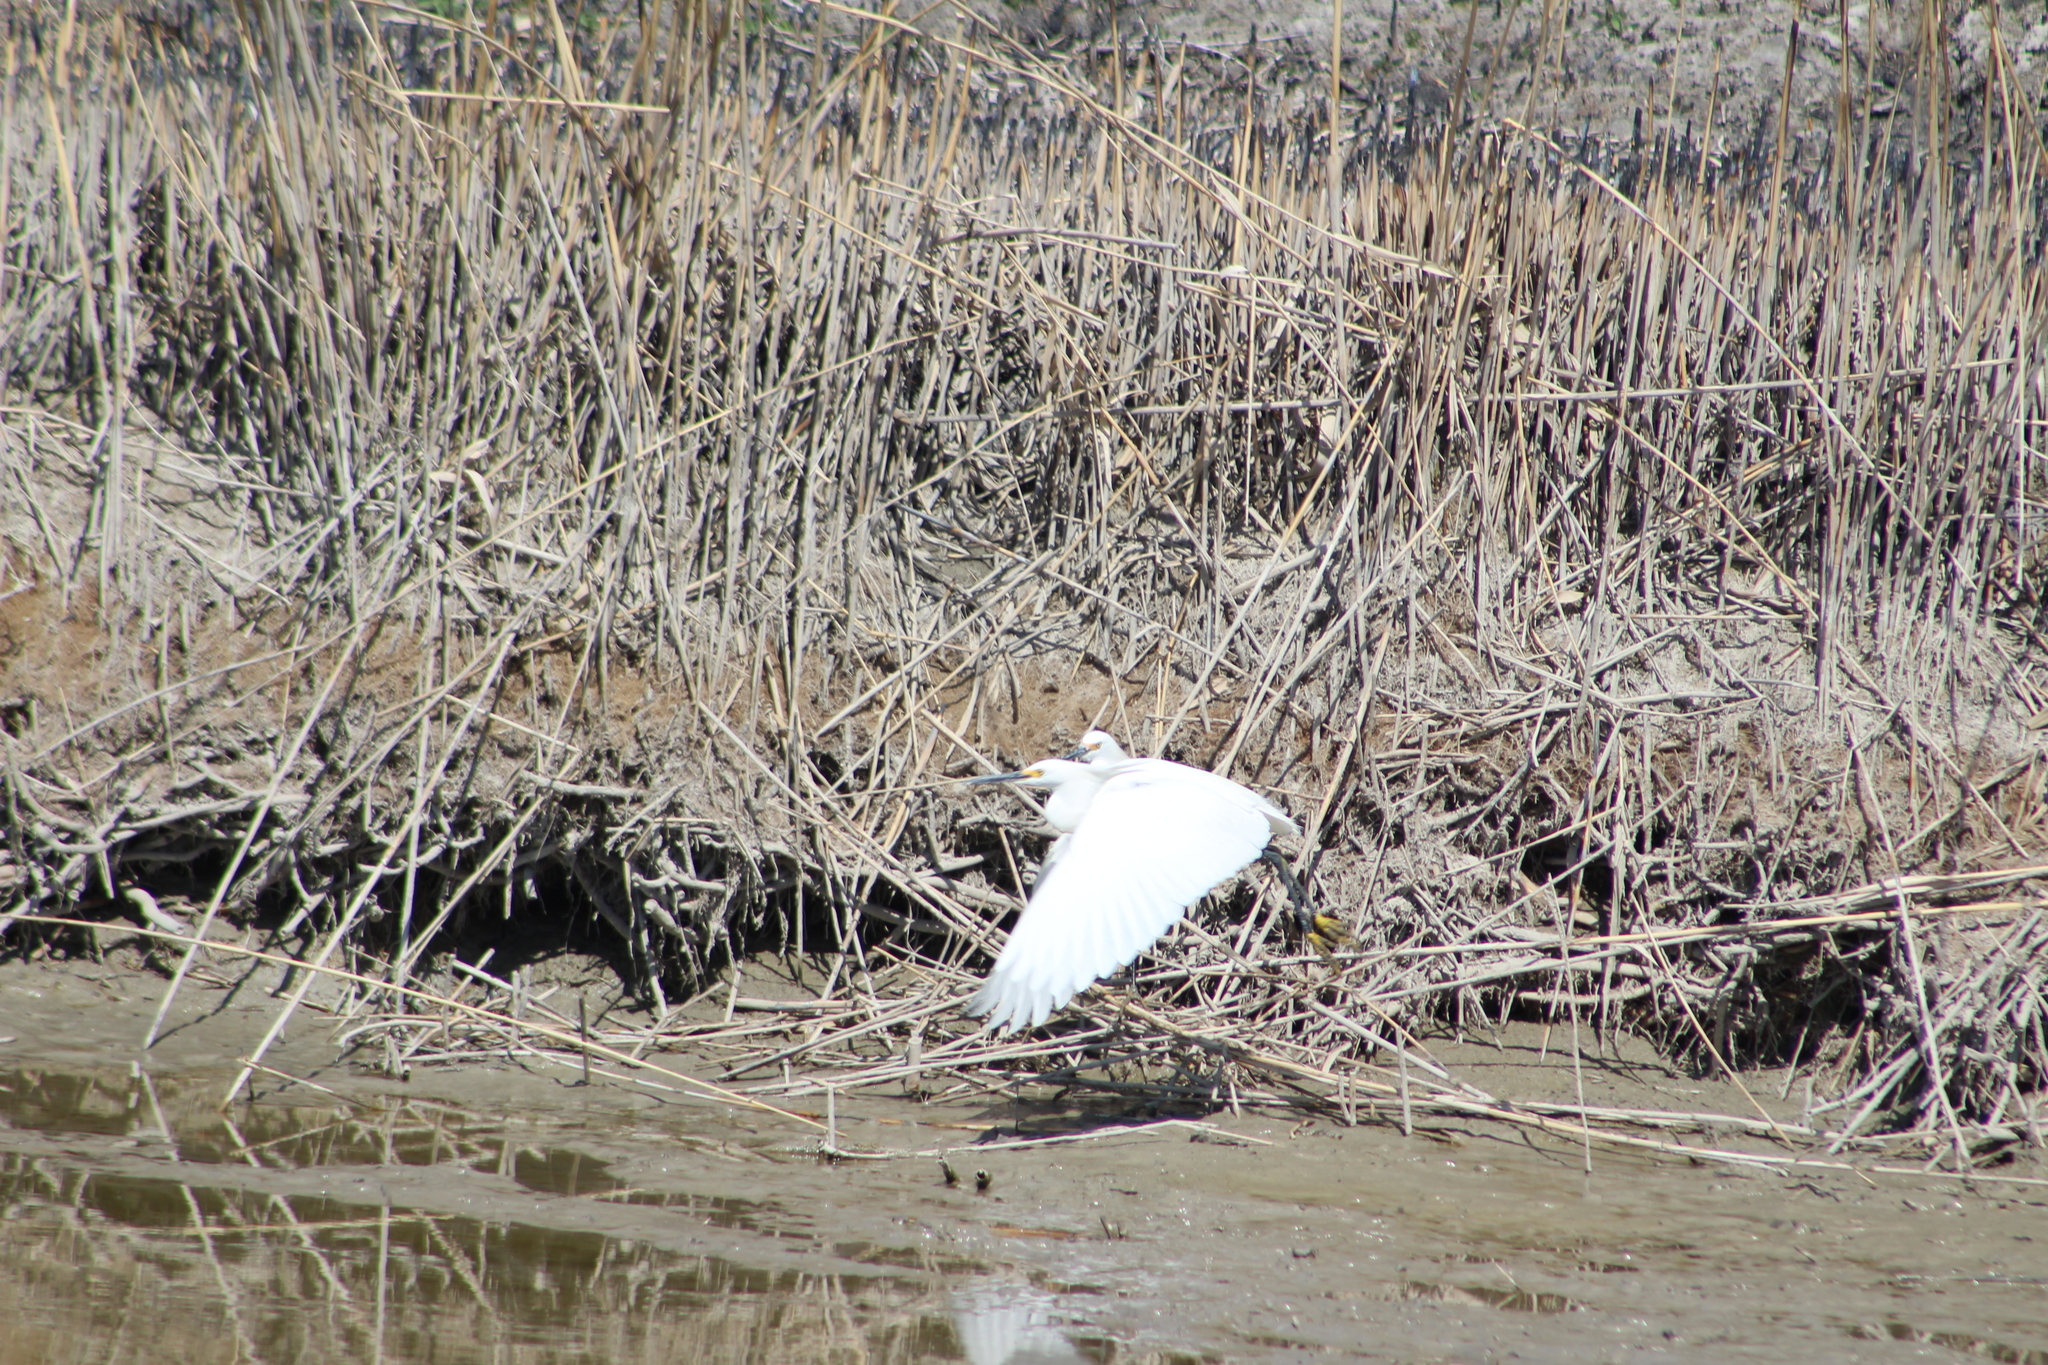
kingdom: Animalia
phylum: Chordata
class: Aves
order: Pelecaniformes
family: Ardeidae
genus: Egretta
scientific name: Egretta thula
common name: Snowy egret
